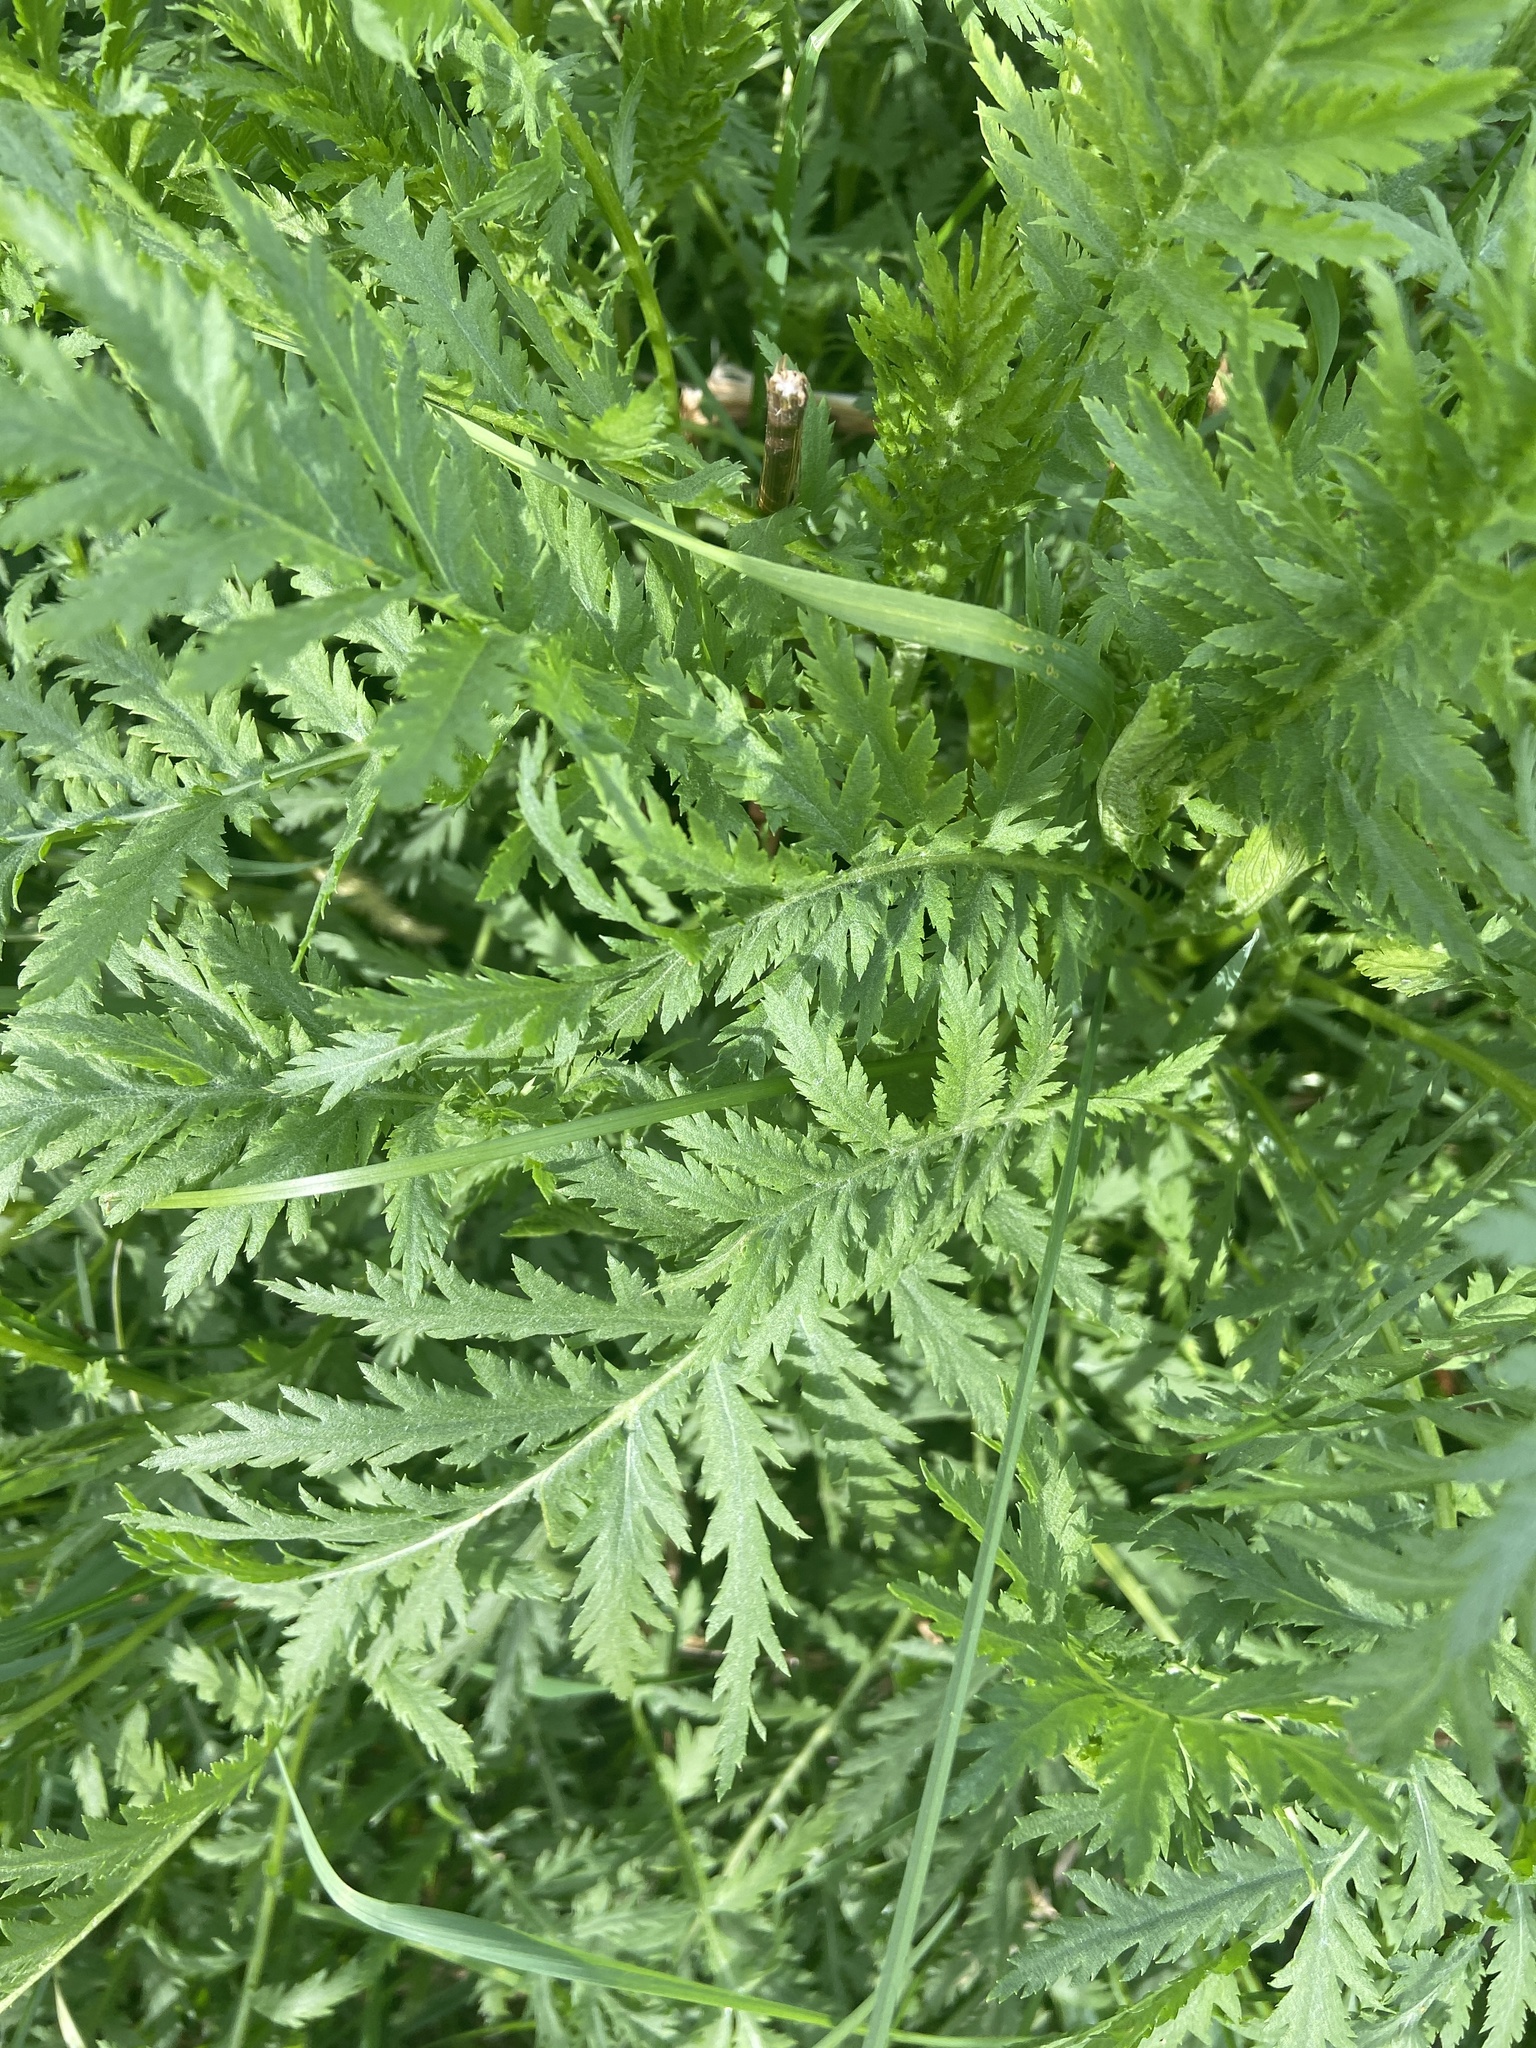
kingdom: Plantae
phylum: Tracheophyta
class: Magnoliopsida
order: Asterales
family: Asteraceae
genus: Tanacetum
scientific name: Tanacetum vulgare
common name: Common tansy
